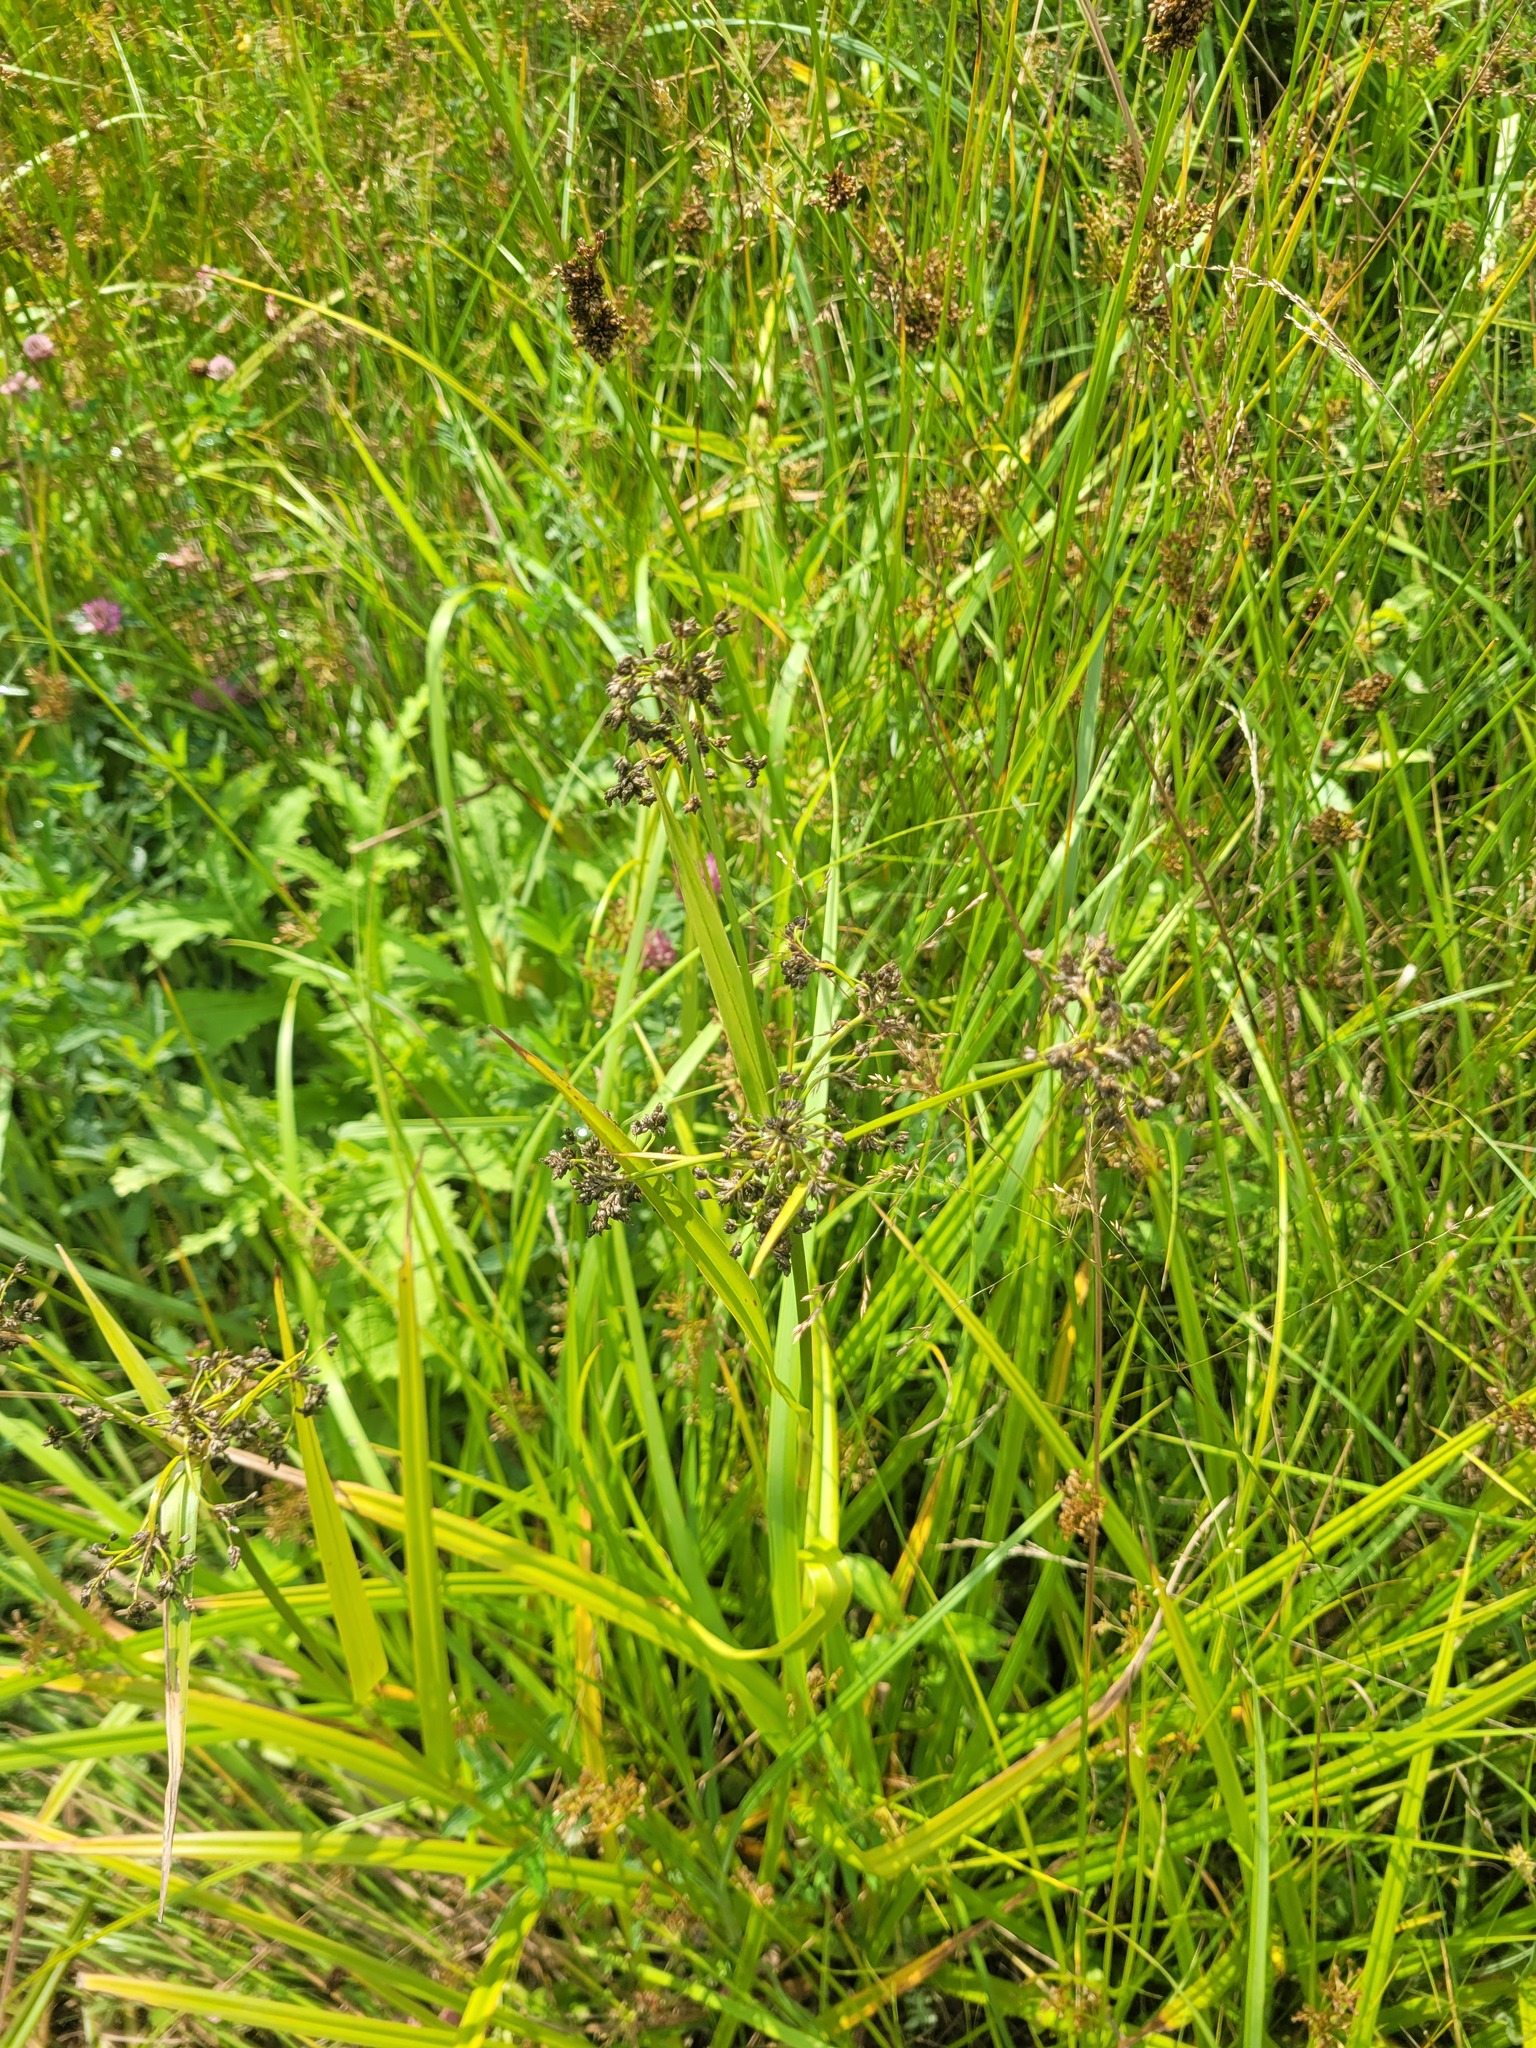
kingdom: Plantae
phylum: Tracheophyta
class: Liliopsida
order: Poales
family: Cyperaceae
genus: Scirpus
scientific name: Scirpus sylvaticus
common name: Wood club-rush
